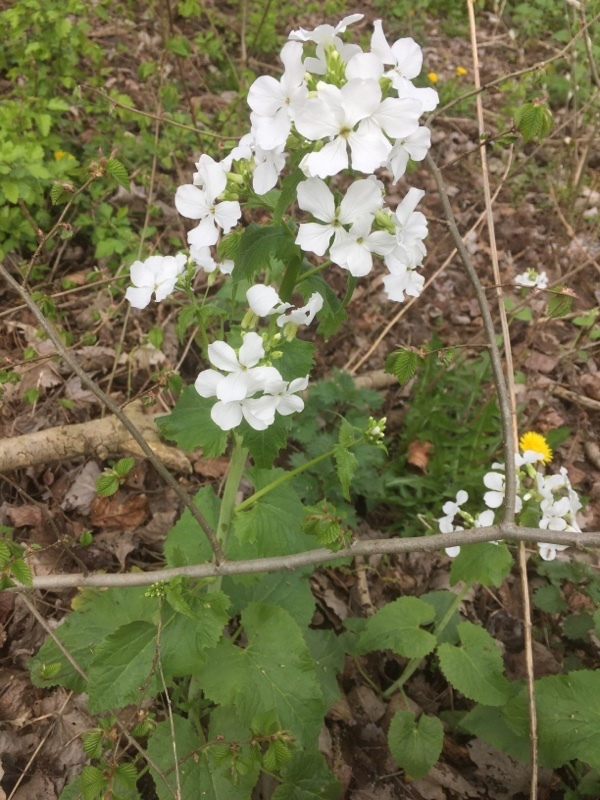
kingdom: Plantae
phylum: Tracheophyta
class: Magnoliopsida
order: Brassicales
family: Brassicaceae
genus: Lunaria
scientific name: Lunaria annua
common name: Honesty
